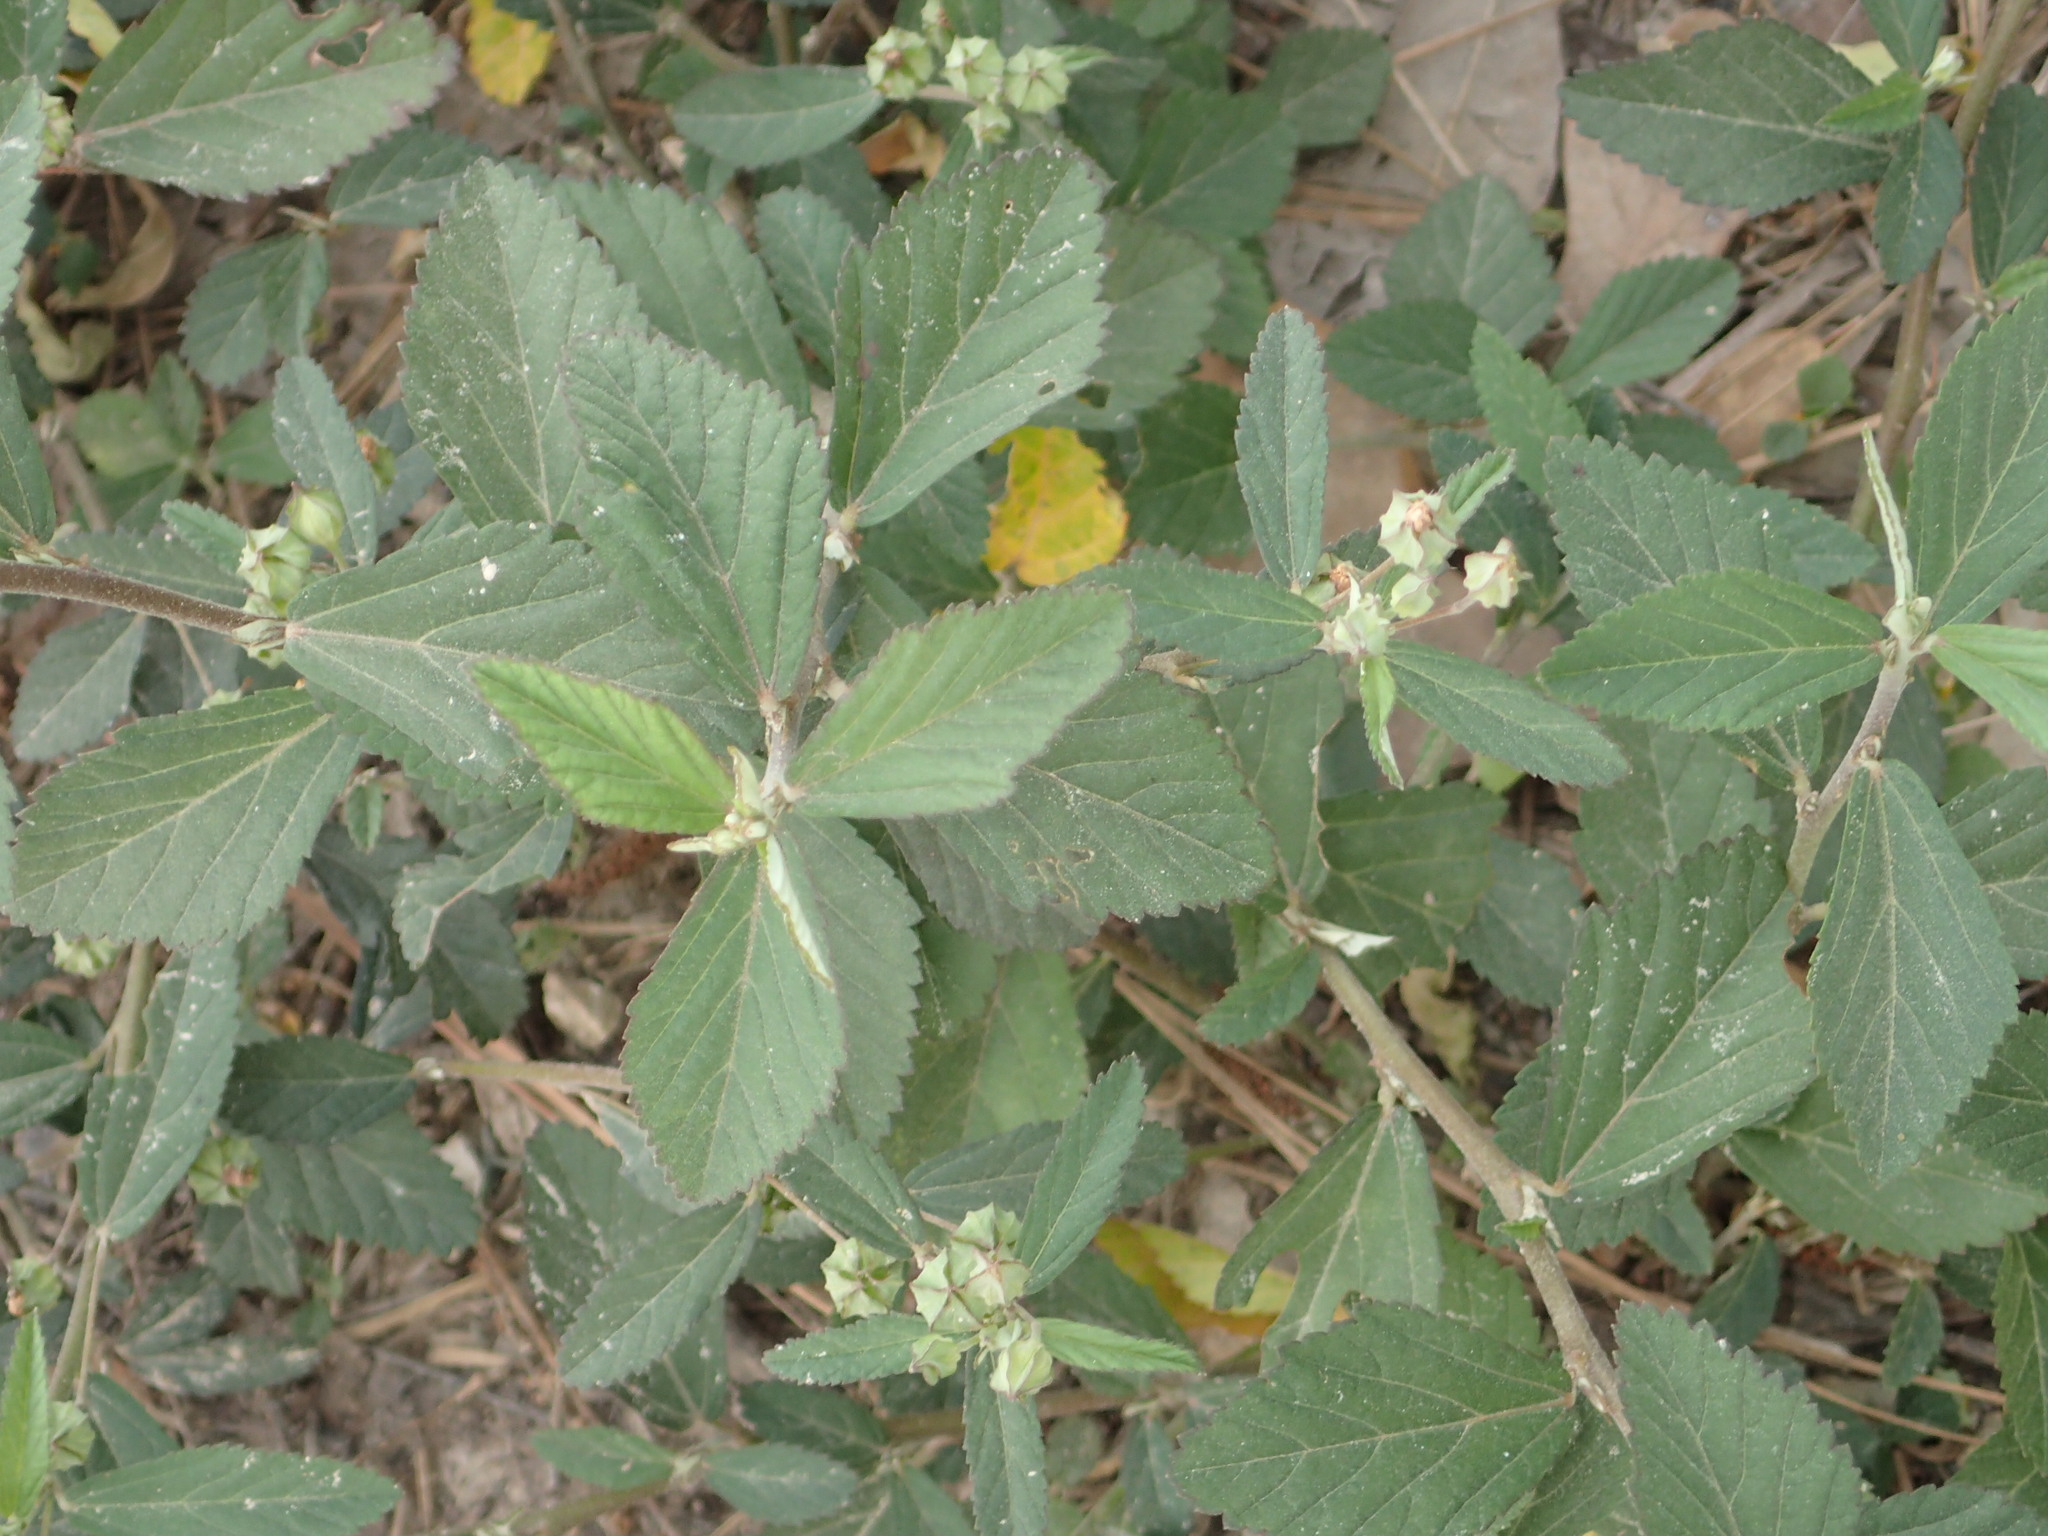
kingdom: Plantae
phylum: Tracheophyta
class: Magnoliopsida
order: Malvales
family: Malvaceae
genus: Sida
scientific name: Sida rhombifolia
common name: Queensland-hemp
